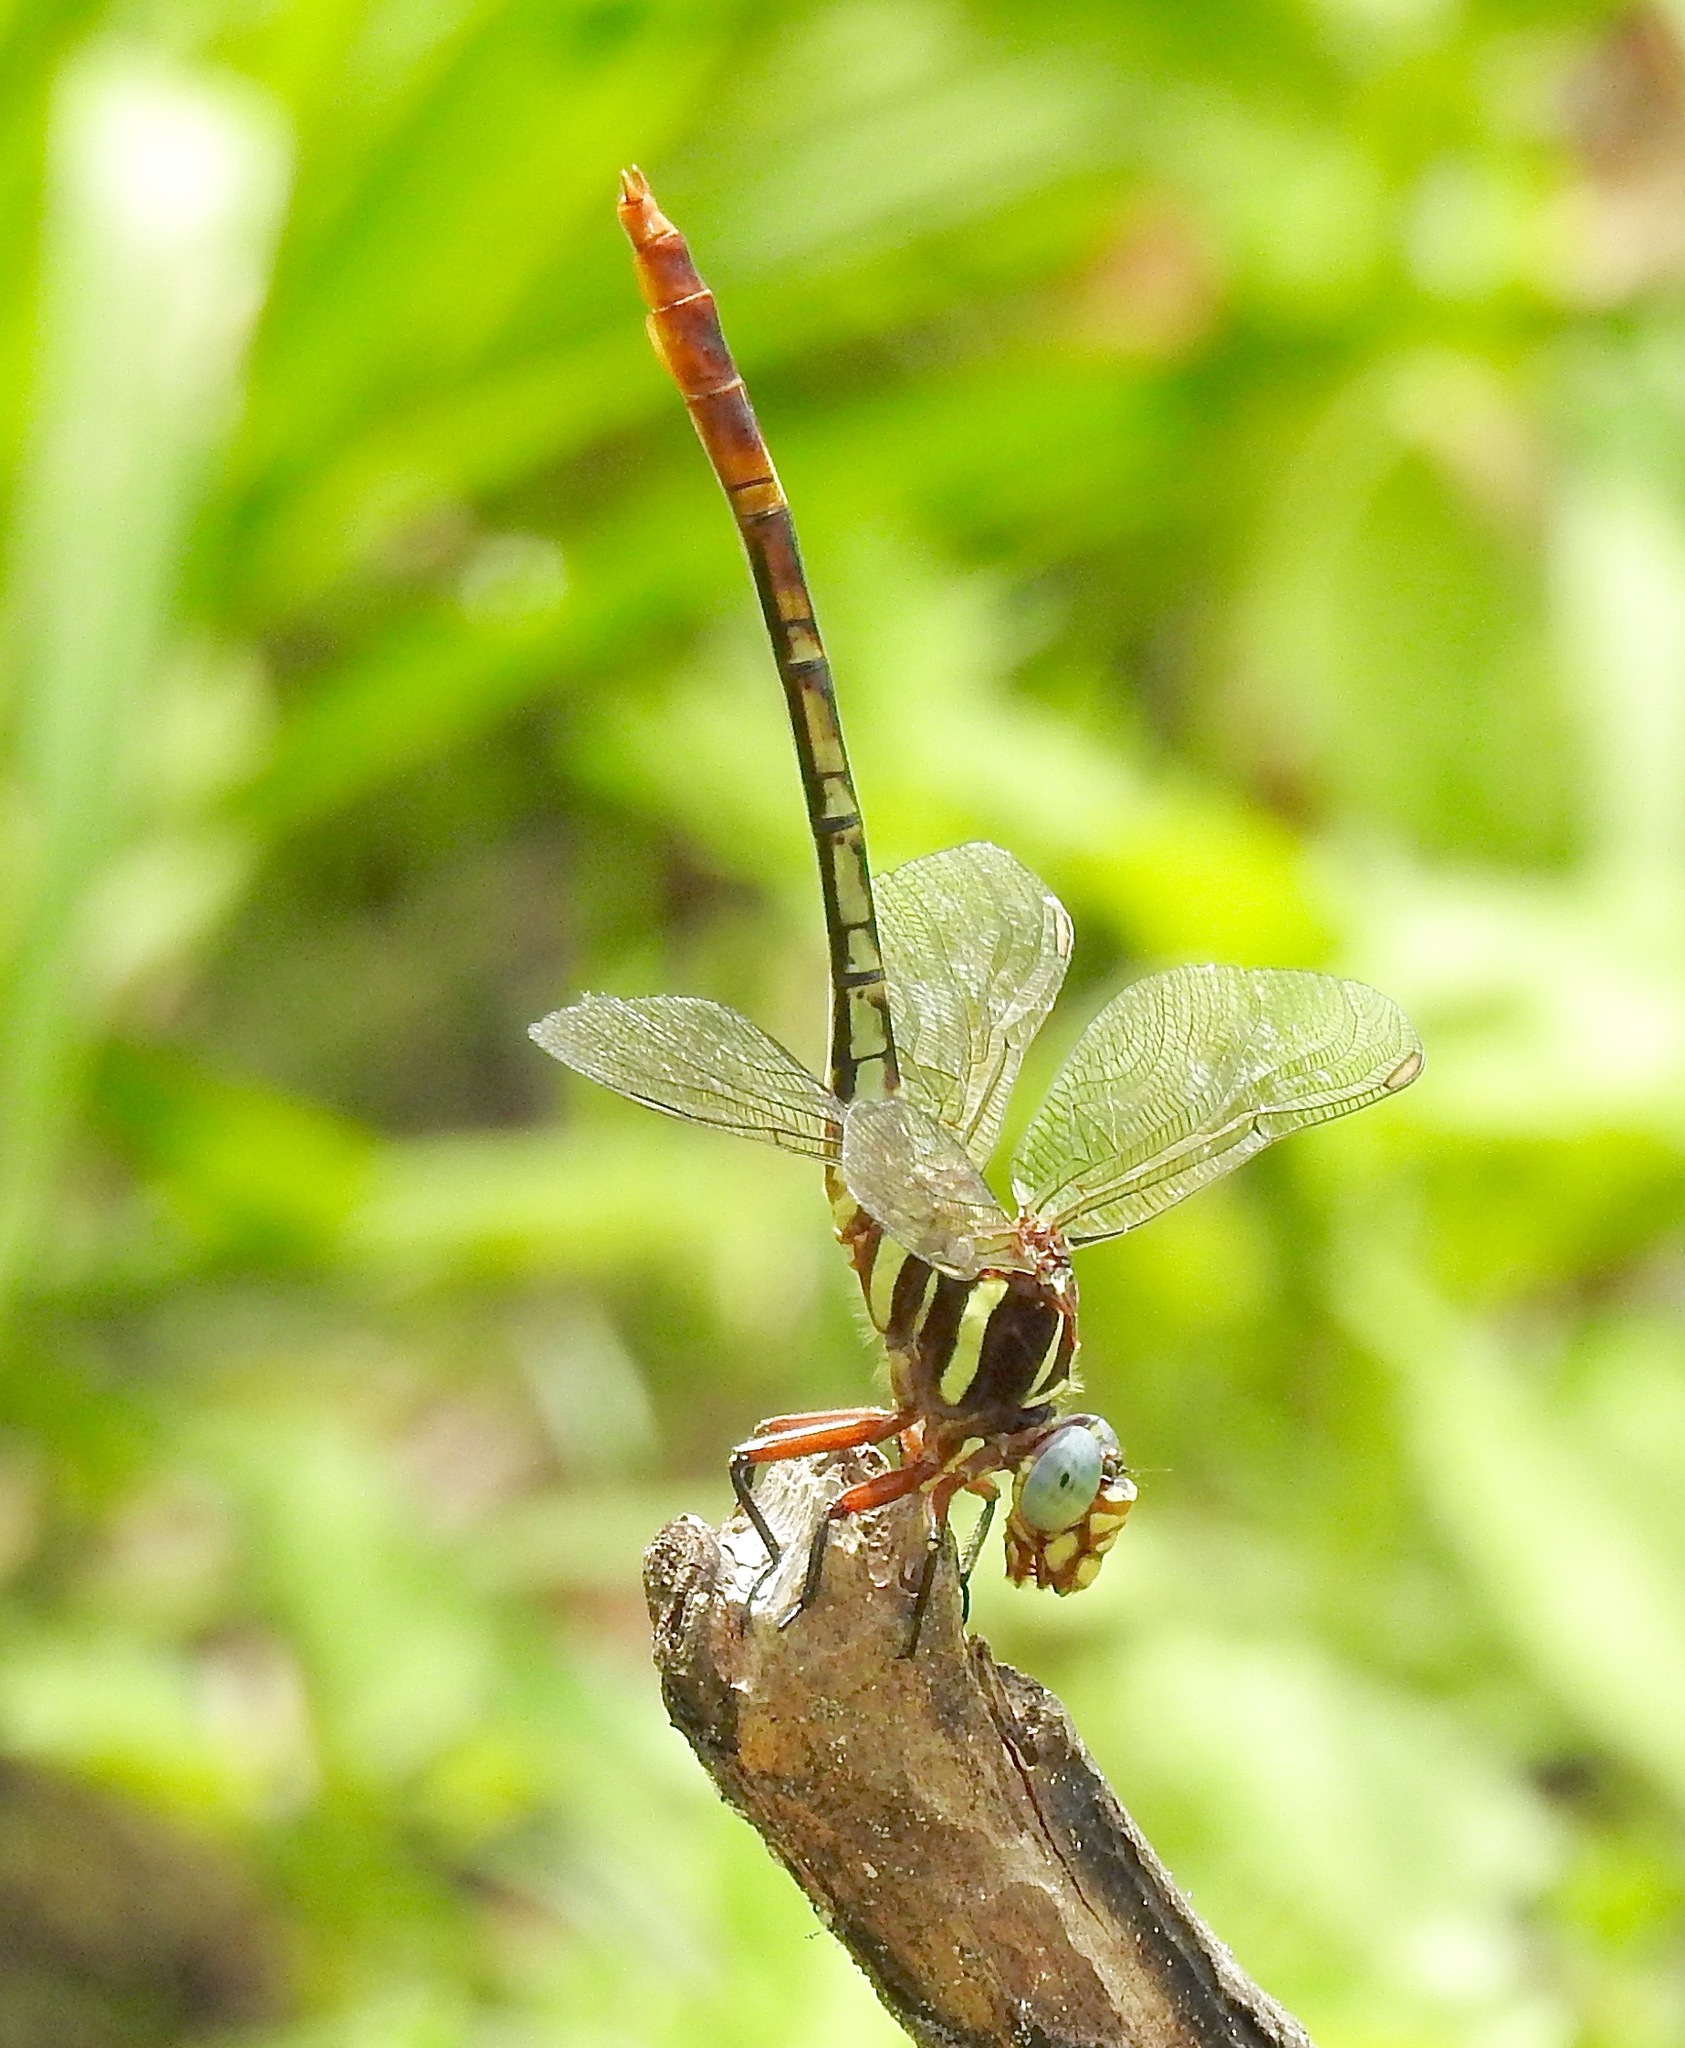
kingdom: Animalia
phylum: Arthropoda
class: Insecta
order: Odonata
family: Gomphidae
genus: Aphylla
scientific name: Aphylla williamsoni
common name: Two-striped forceptail
